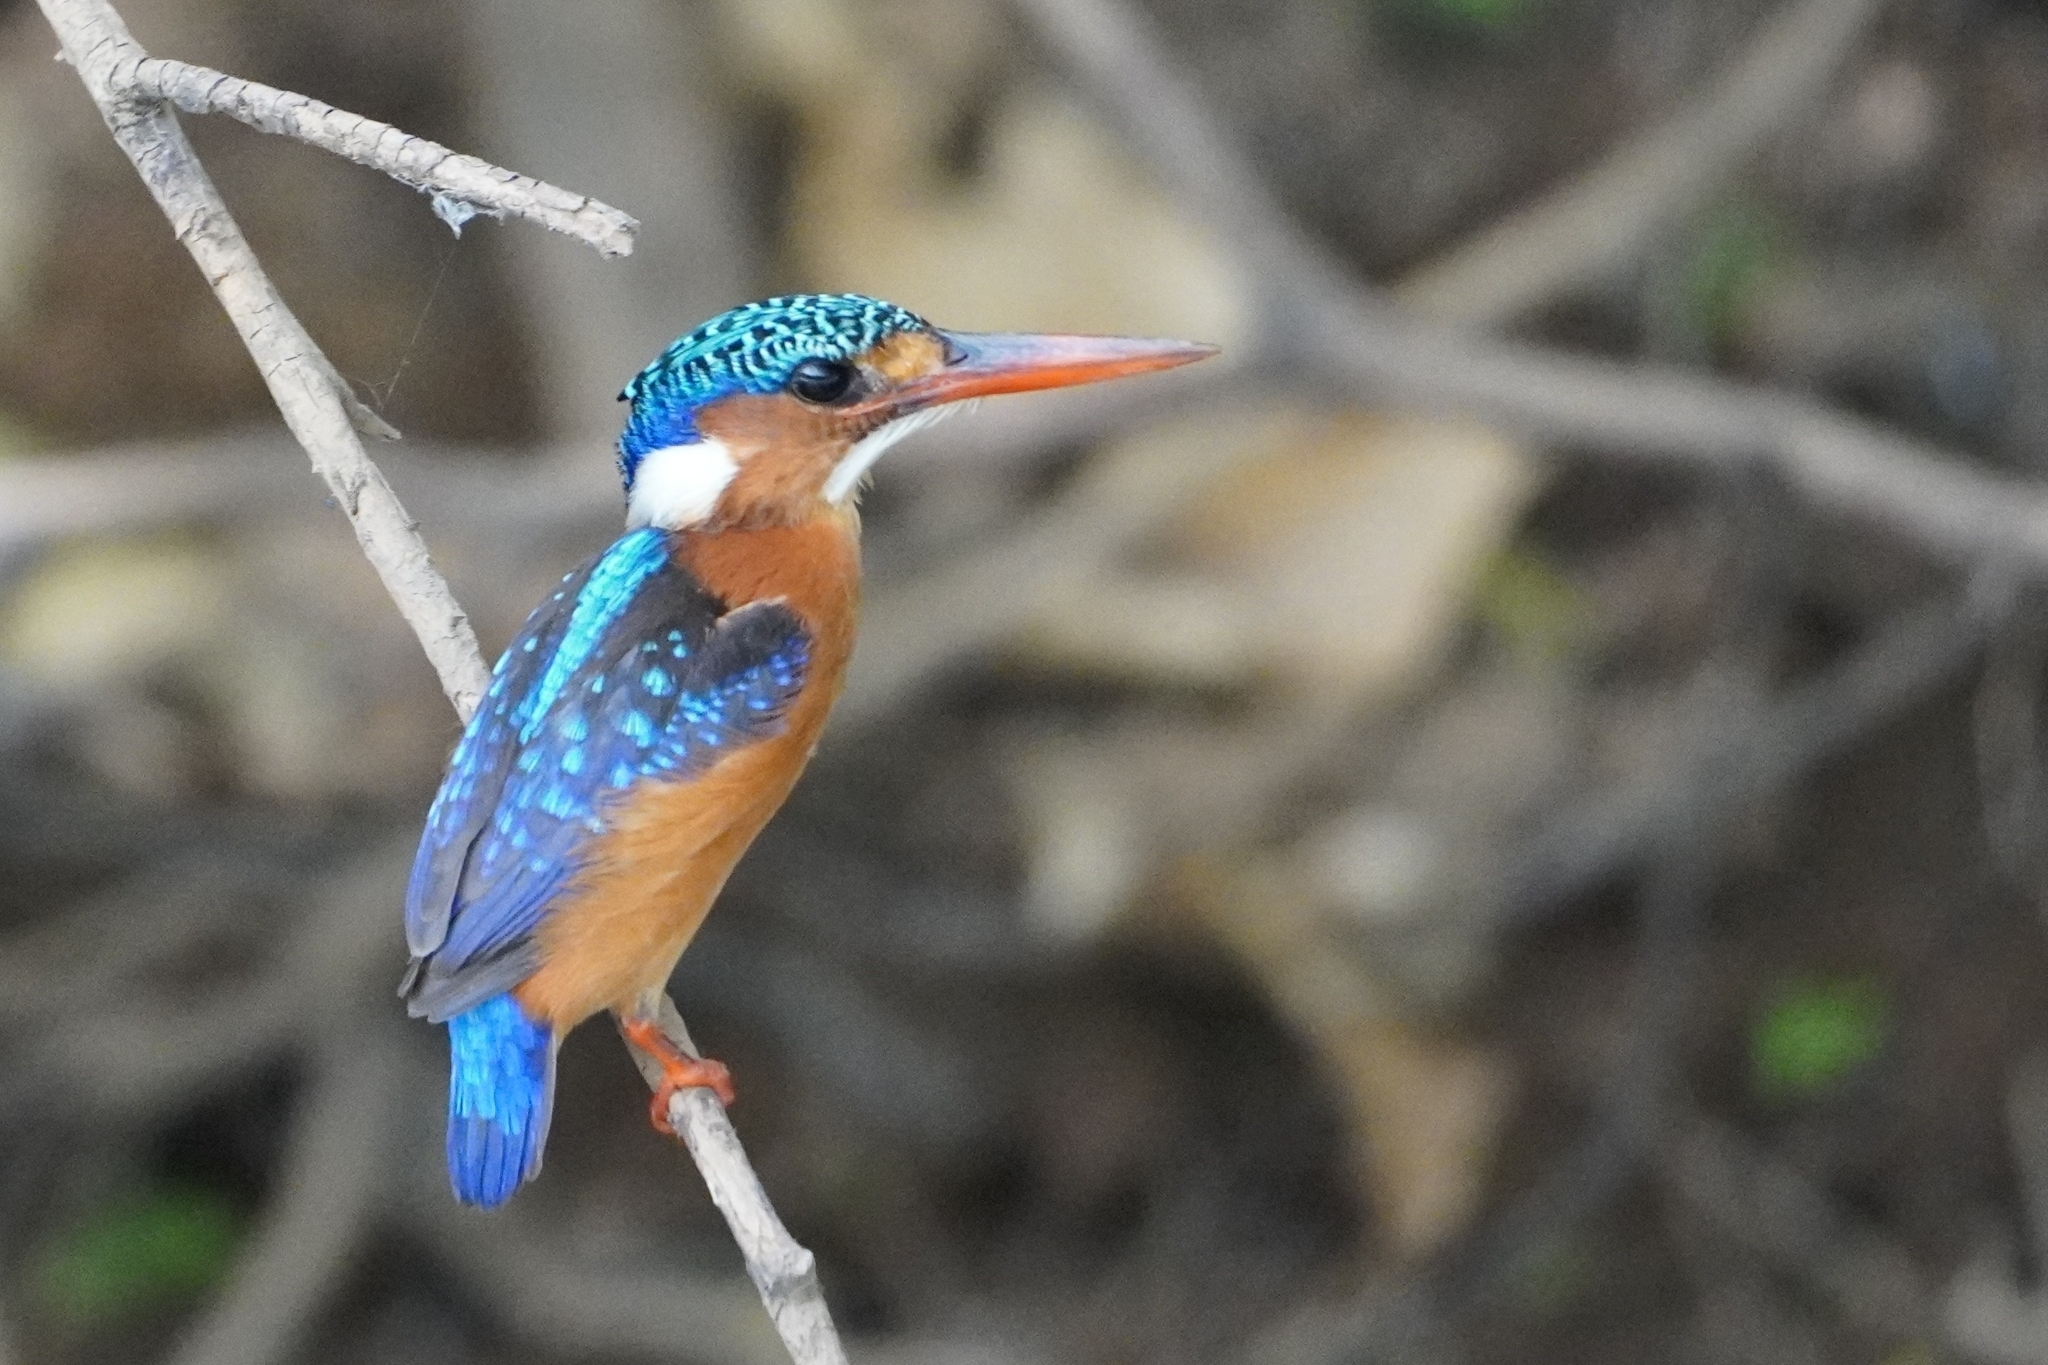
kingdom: Animalia
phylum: Chordata
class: Aves
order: Coraciiformes
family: Alcedinidae
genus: Corythornis
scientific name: Corythornis cristatus
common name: Malachite kingfisher
